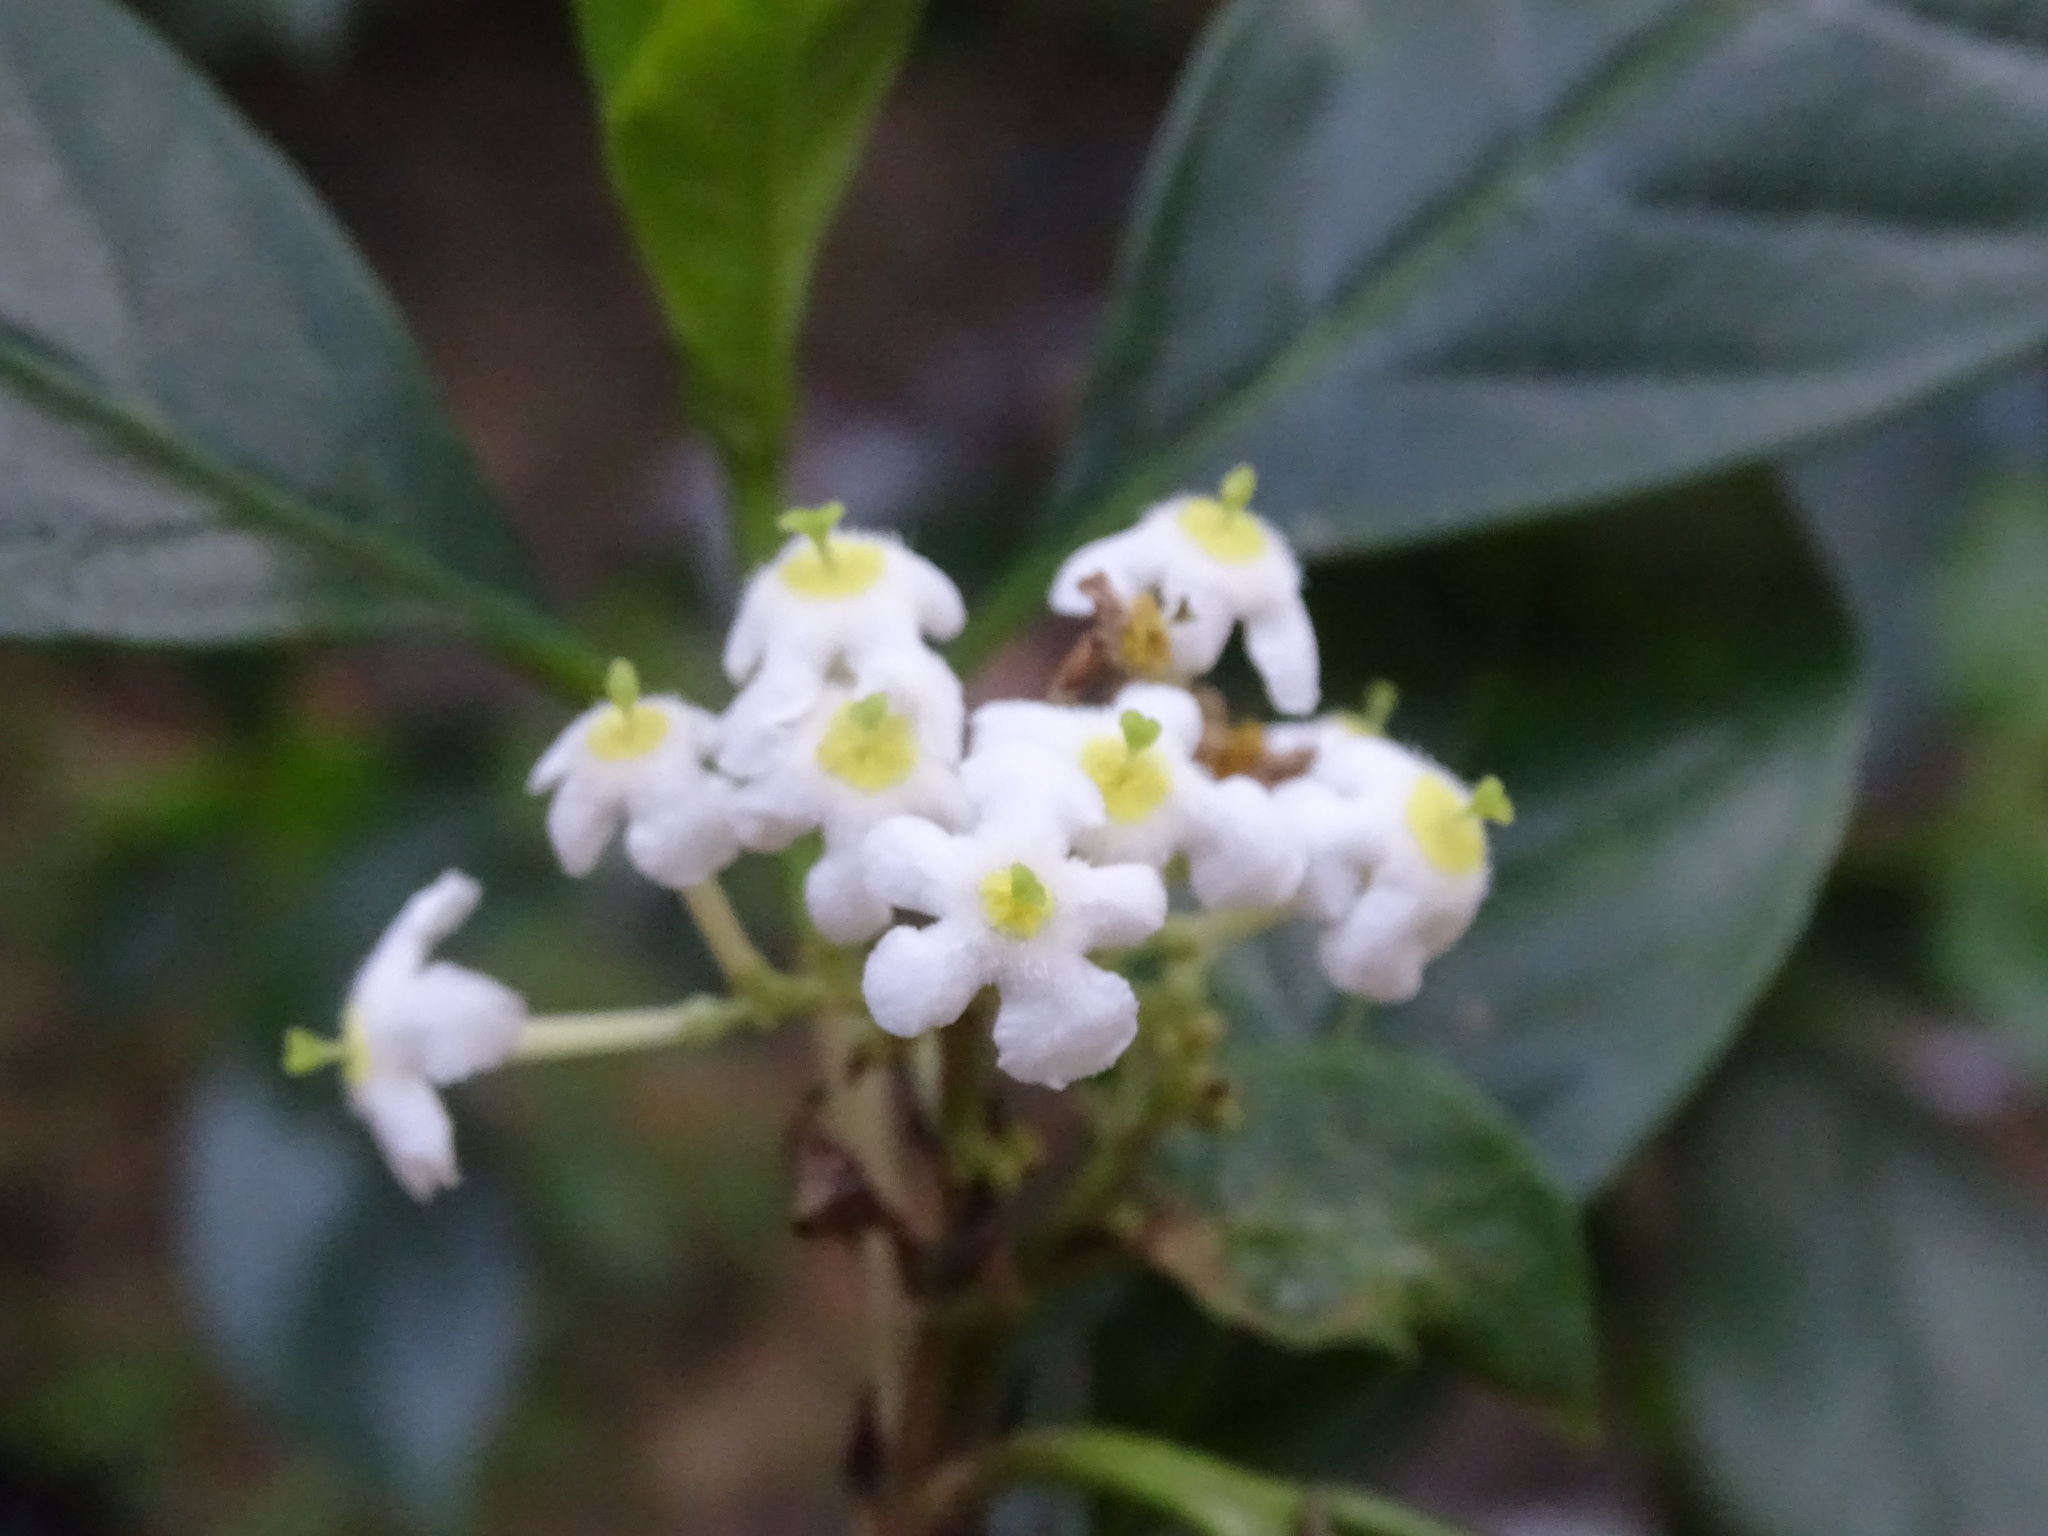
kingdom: Plantae
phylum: Tracheophyta
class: Magnoliopsida
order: Gentianales
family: Rubiaceae
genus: Rogiera
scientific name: Rogiera stenosiphon
